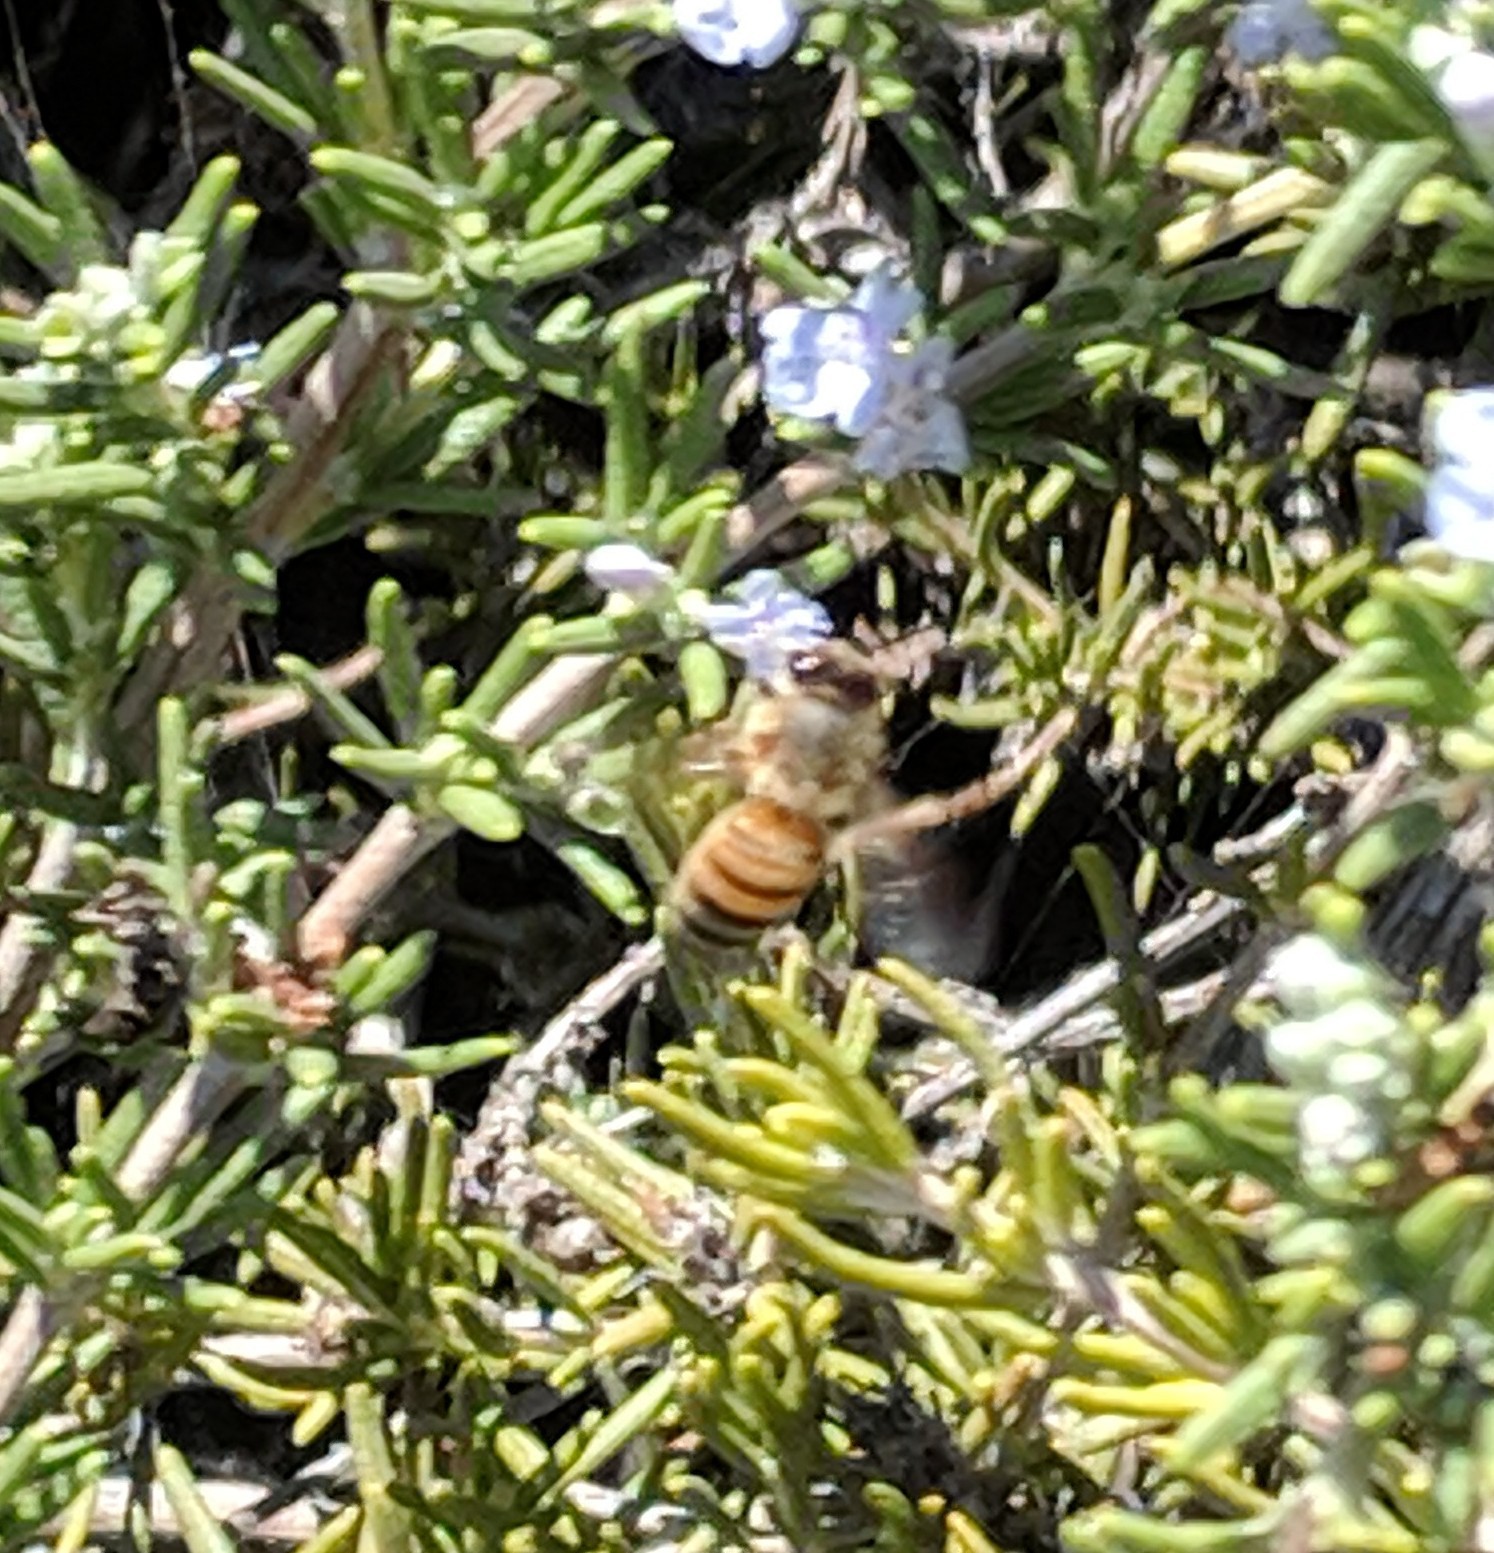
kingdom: Animalia
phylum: Arthropoda
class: Insecta
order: Hymenoptera
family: Apidae
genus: Apis
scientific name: Apis mellifera
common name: Honey bee
